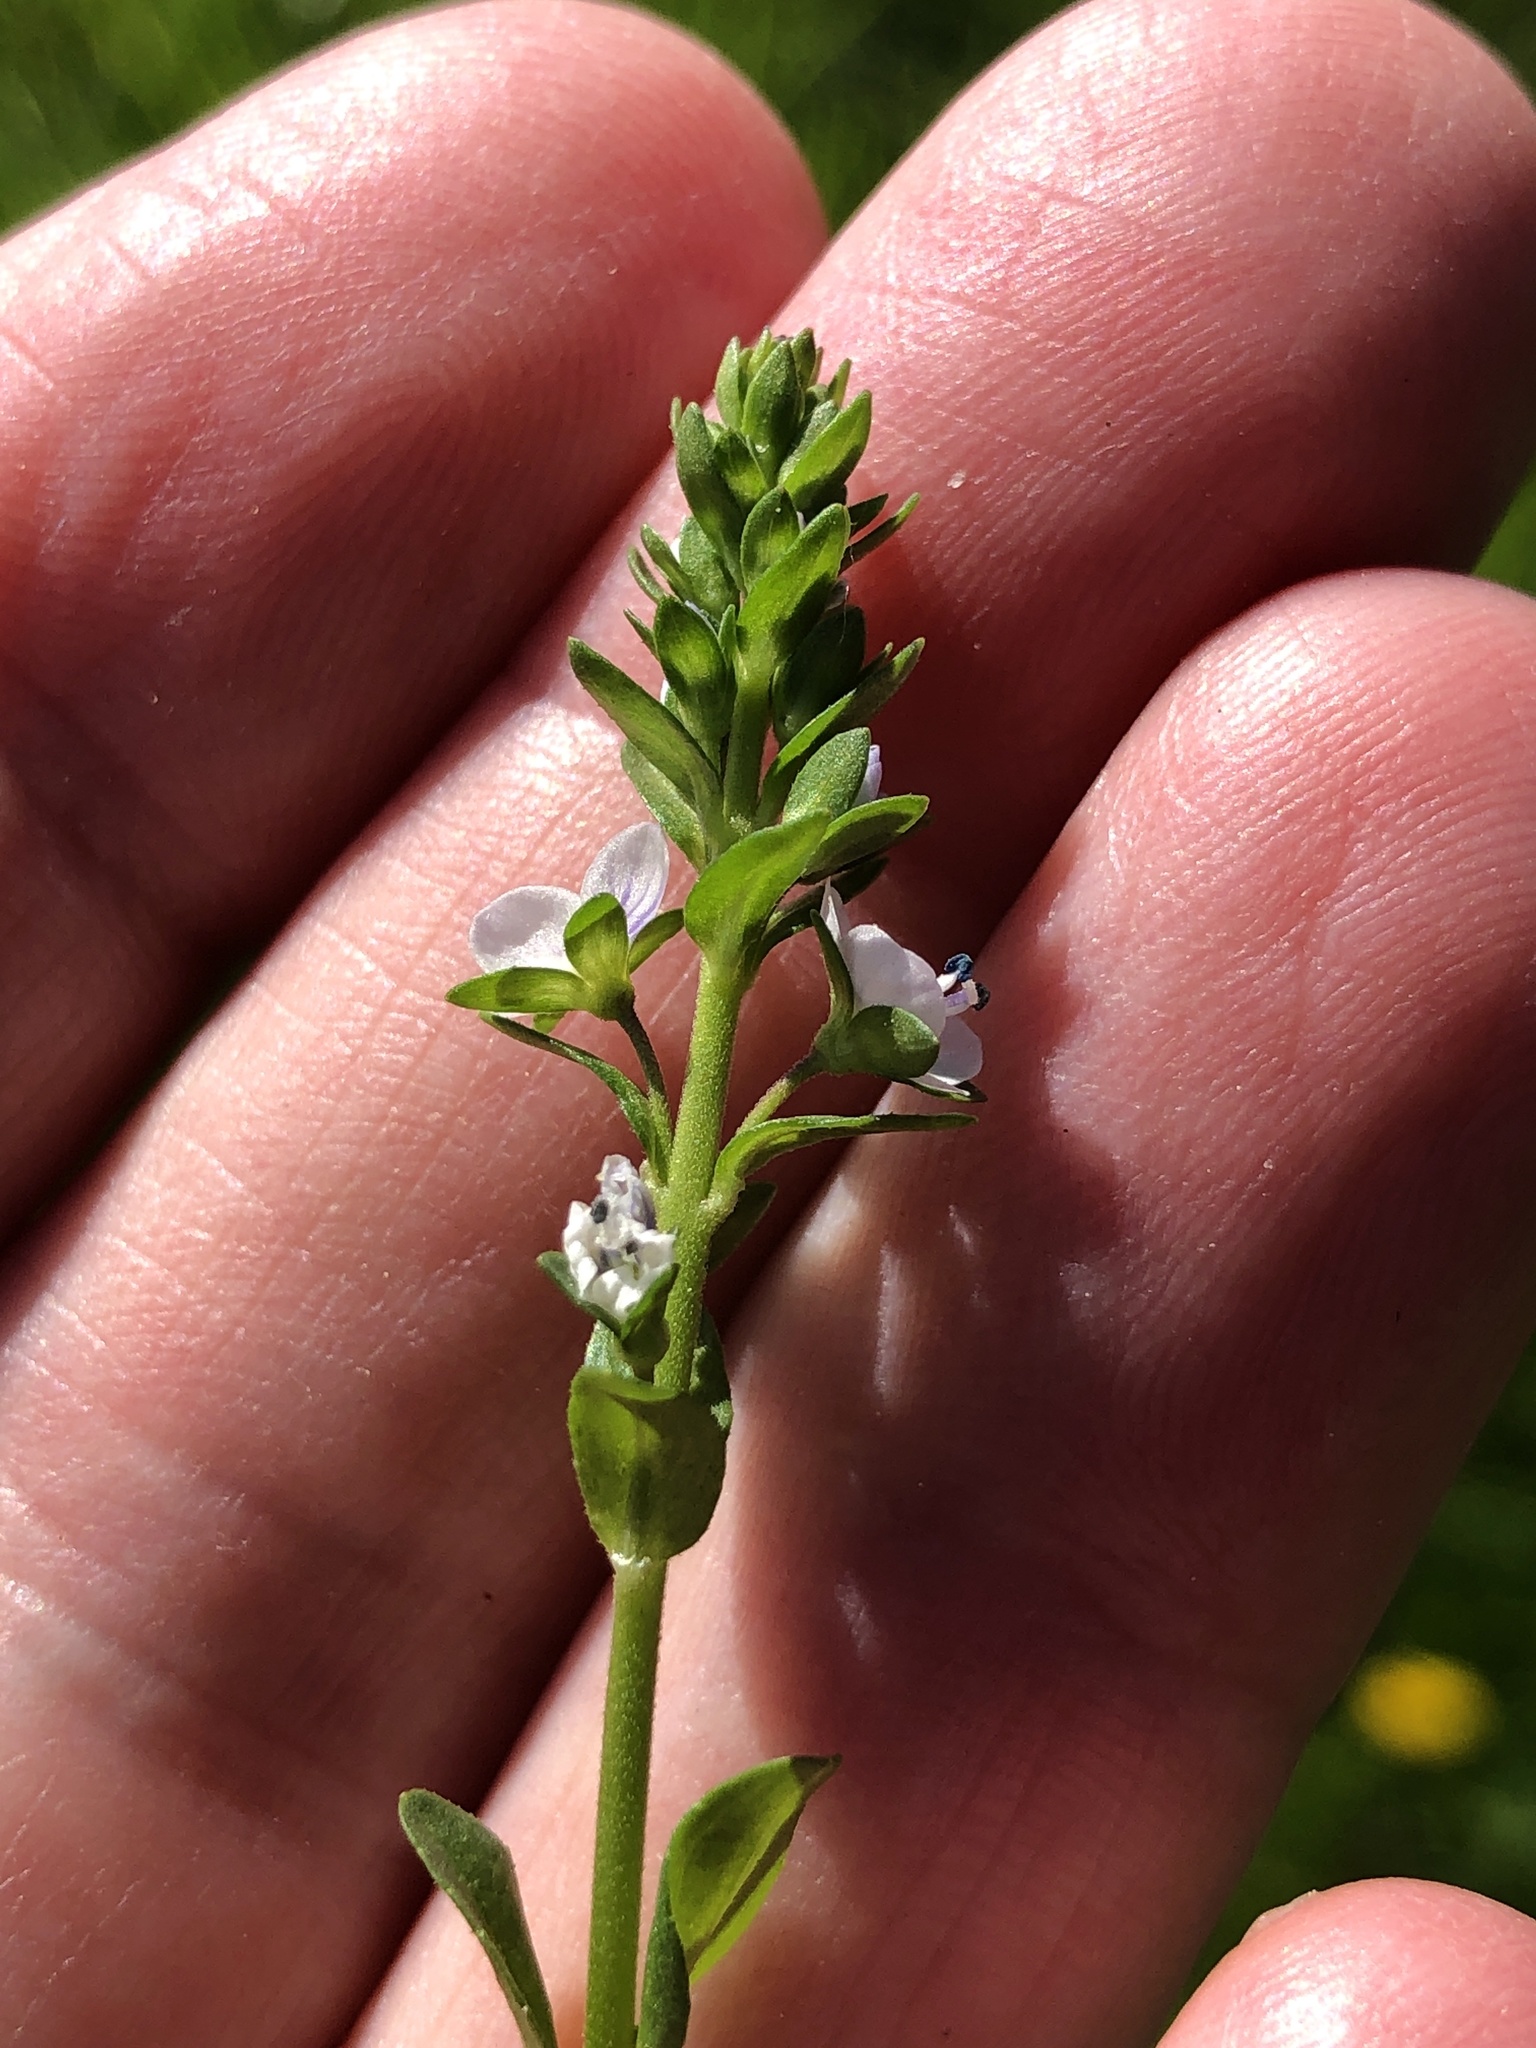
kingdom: Plantae
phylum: Tracheophyta
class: Magnoliopsida
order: Lamiales
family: Plantaginaceae
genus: Veronica
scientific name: Veronica serpyllifolia
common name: Thyme-leaved speedwell
